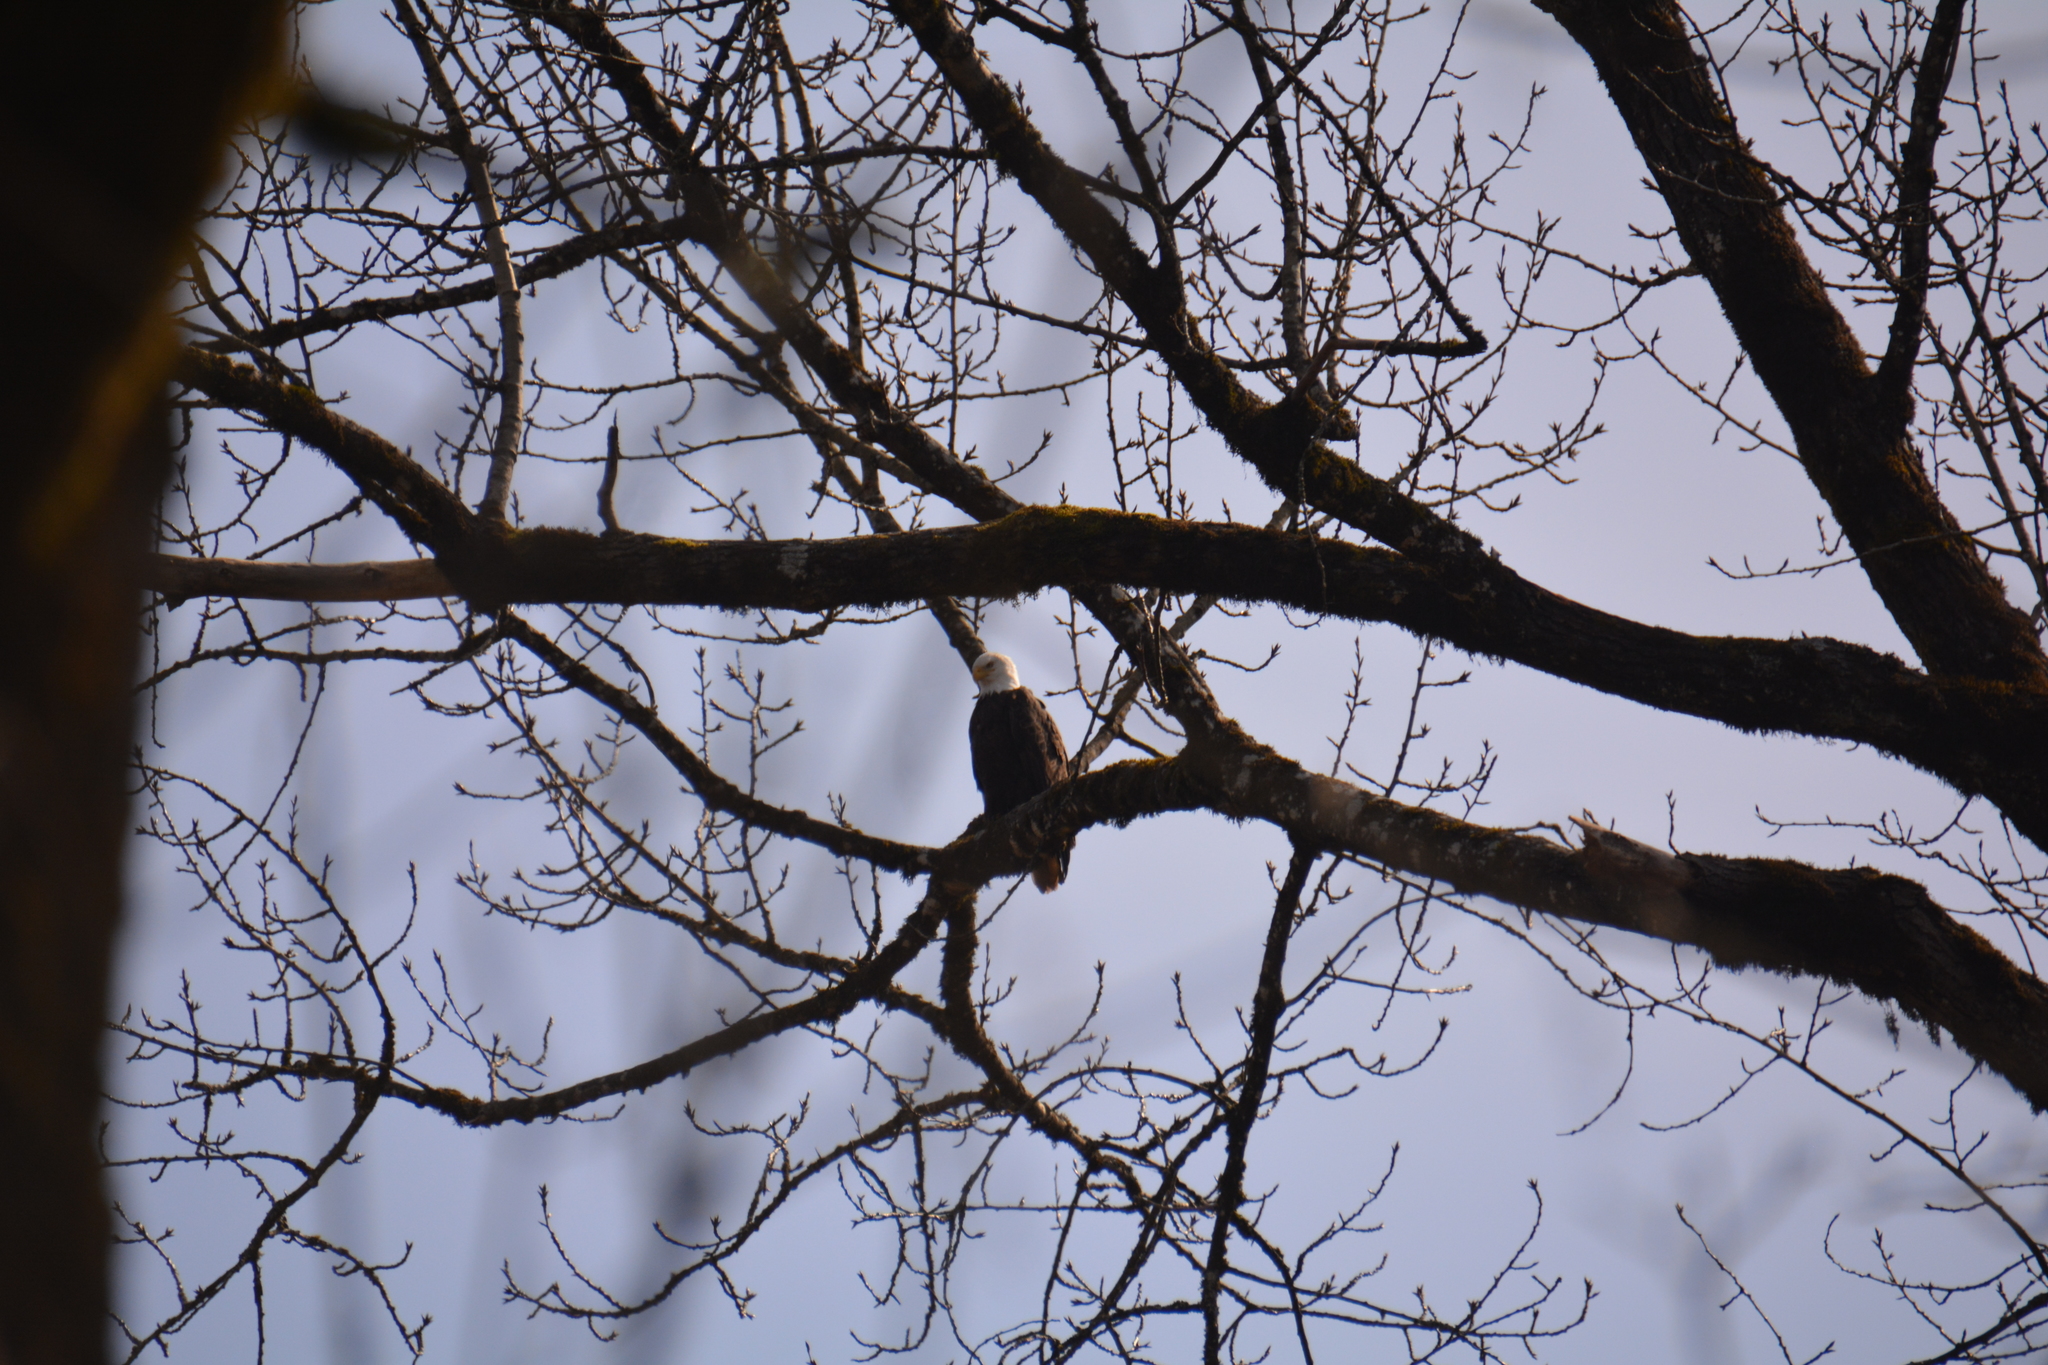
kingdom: Animalia
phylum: Chordata
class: Aves
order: Accipitriformes
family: Accipitridae
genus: Haliaeetus
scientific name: Haliaeetus leucocephalus
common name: Bald eagle
